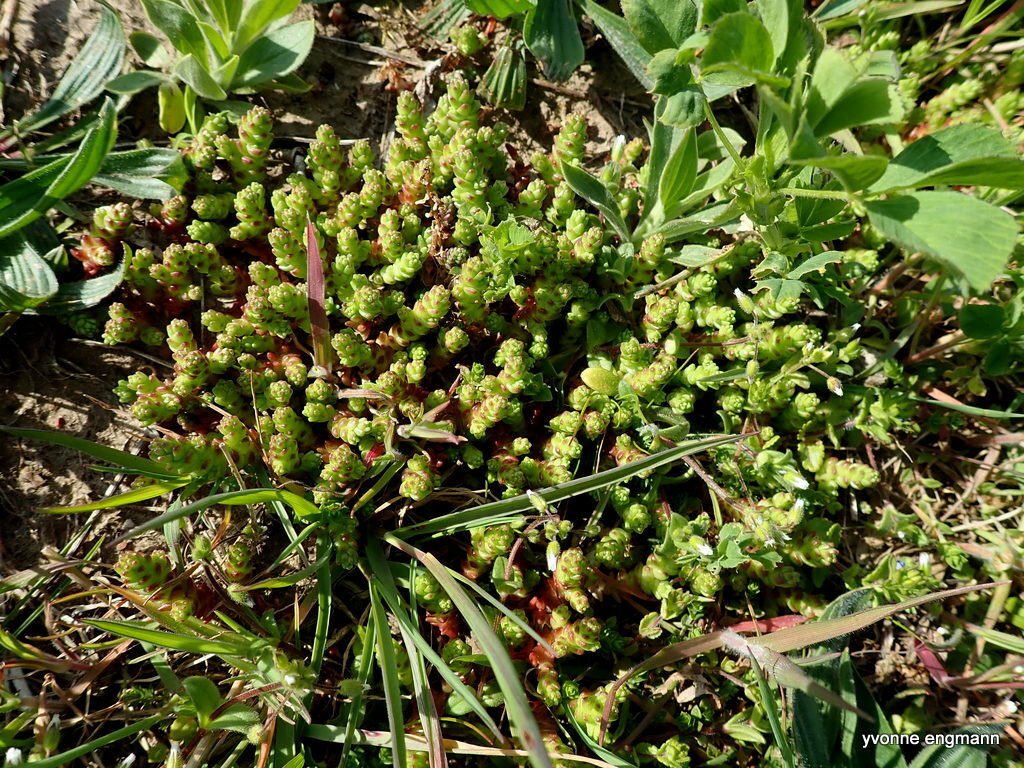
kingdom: Plantae
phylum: Tracheophyta
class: Magnoliopsida
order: Saxifragales
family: Crassulaceae
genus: Sedum
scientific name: Sedum acre
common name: Biting stonecrop
